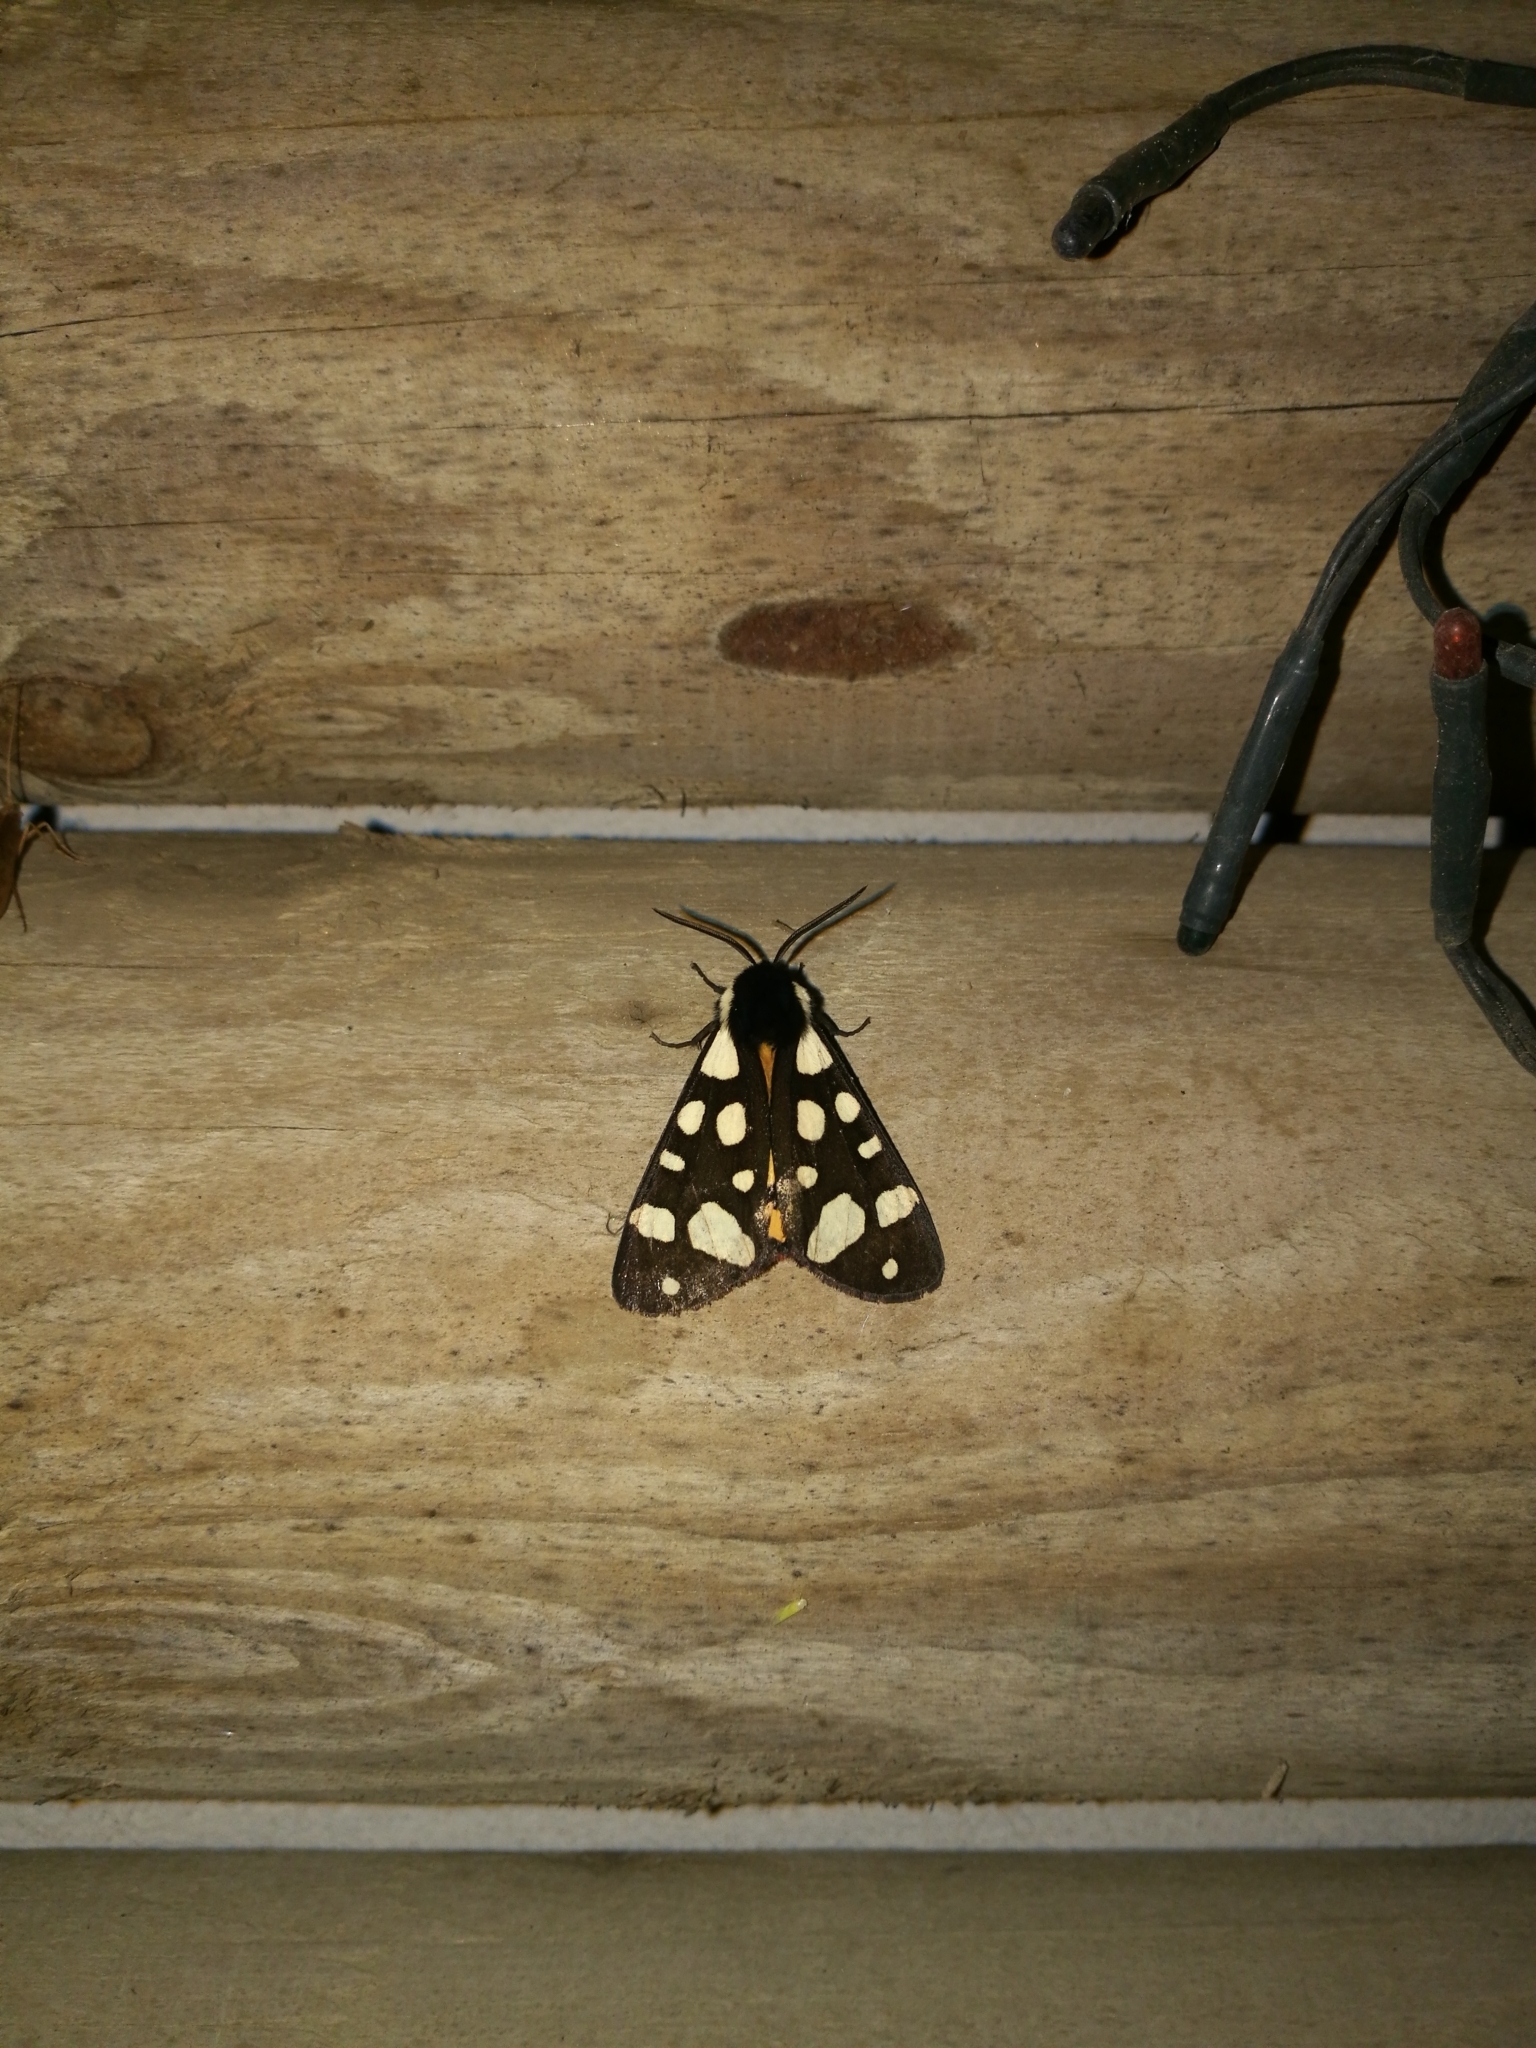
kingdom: Animalia
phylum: Arthropoda
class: Insecta
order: Lepidoptera
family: Erebidae
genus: Epicallia
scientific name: Epicallia villica
